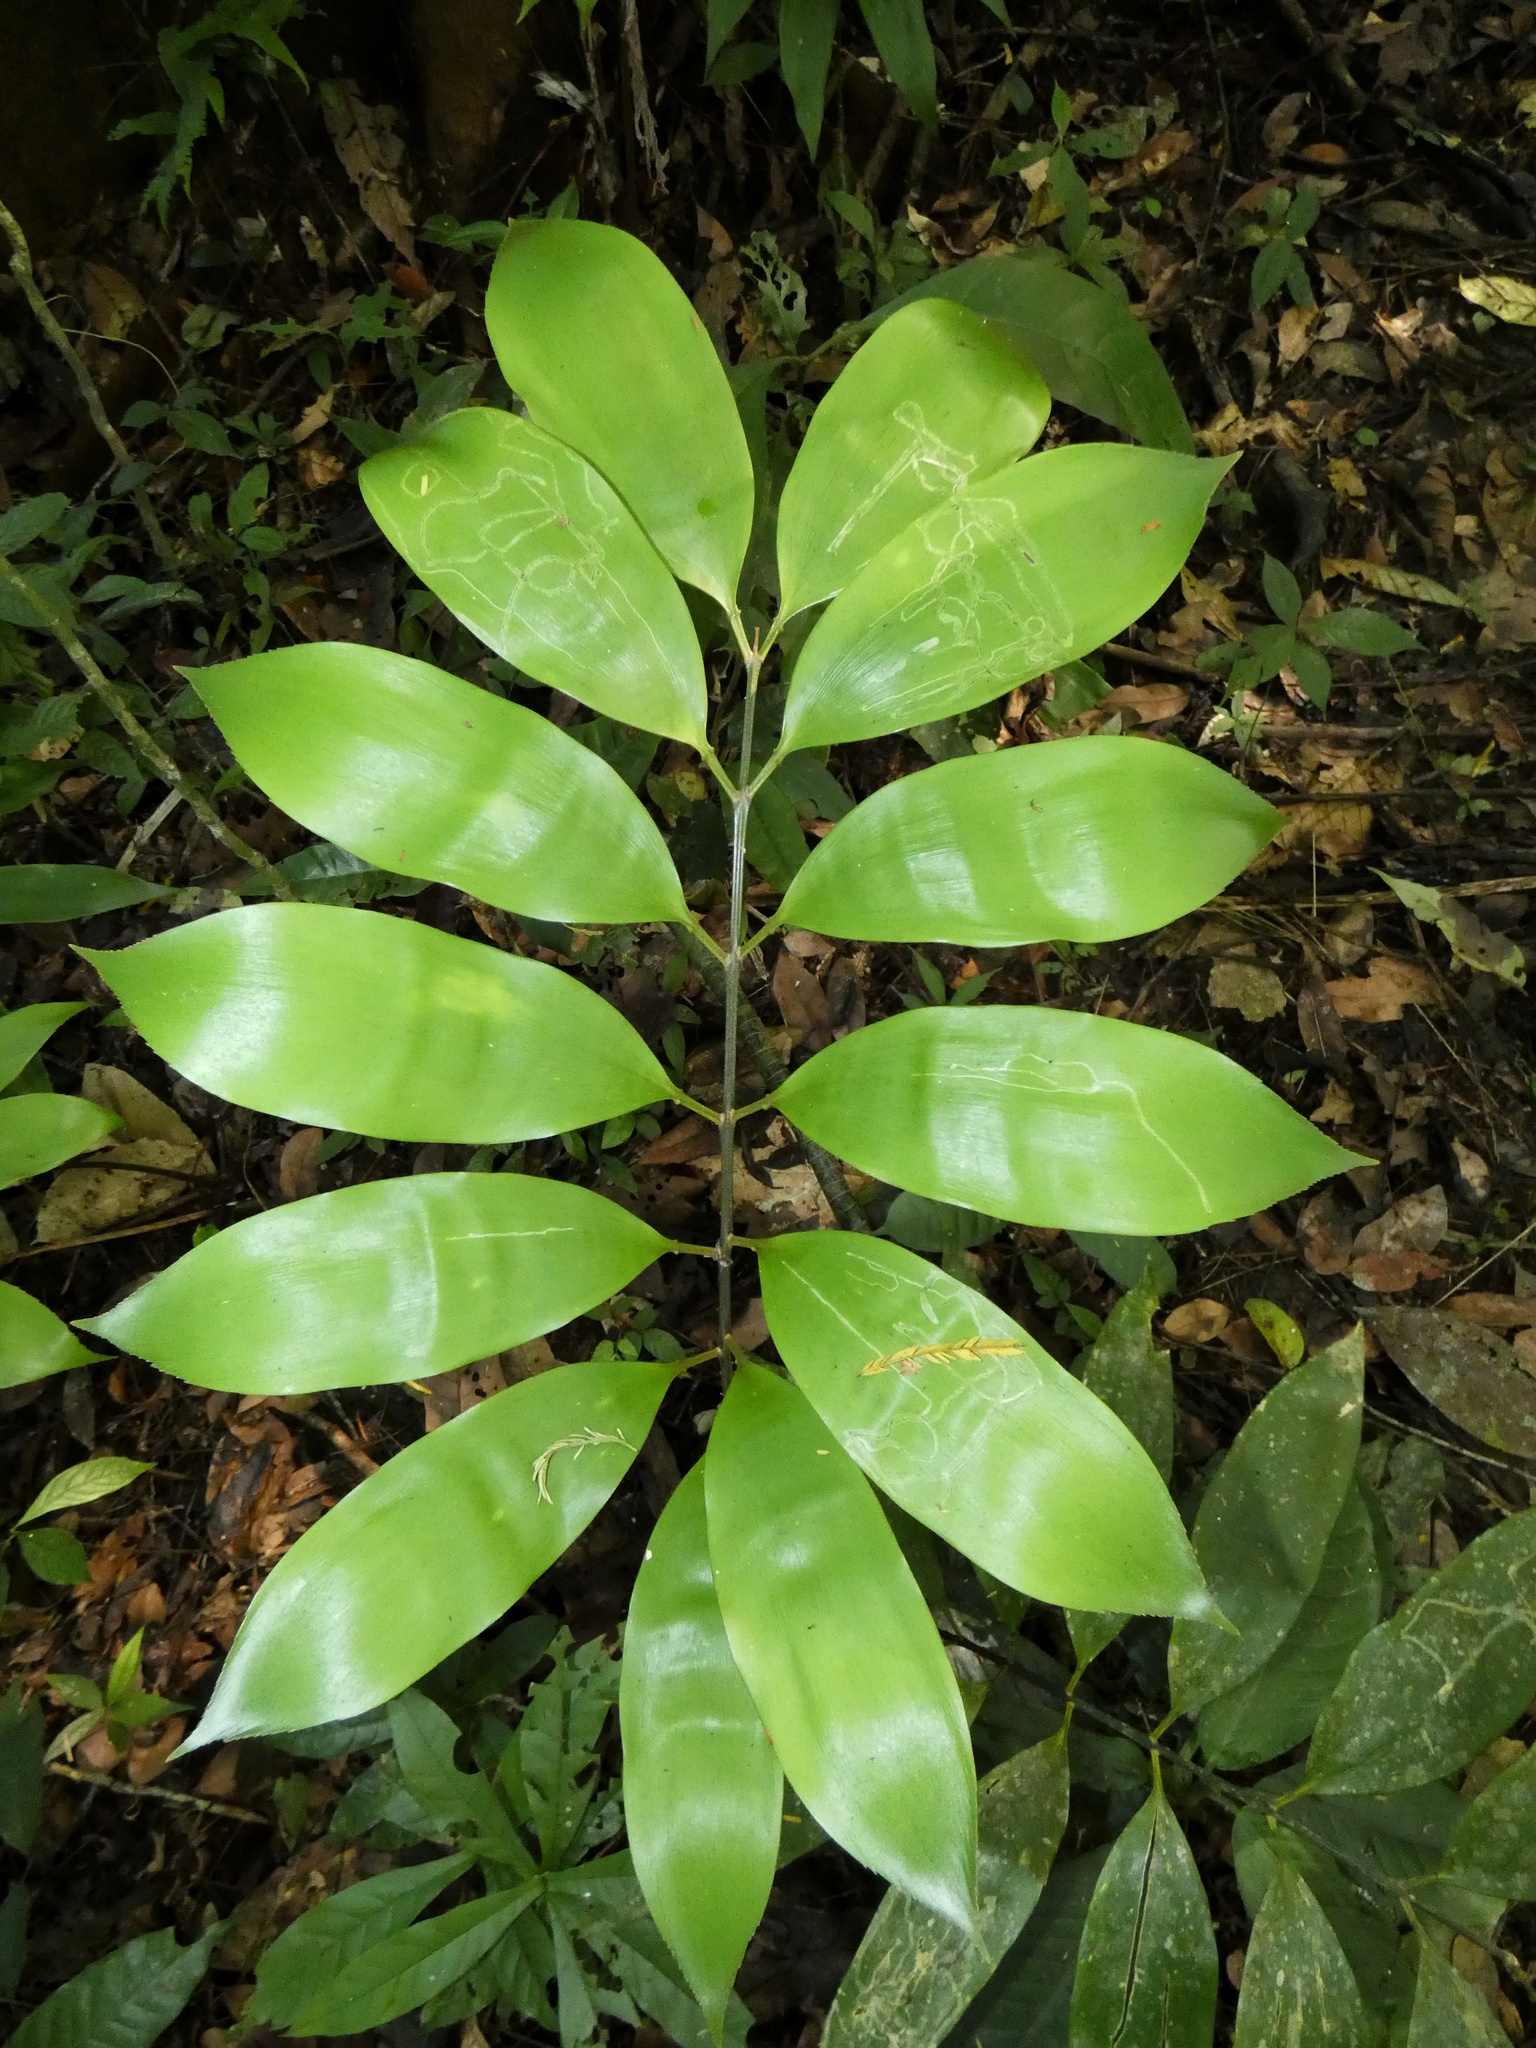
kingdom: Plantae
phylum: Tracheophyta
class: Cycadopsida
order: Cycadales
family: Zamiaceae
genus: Zamia
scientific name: Zamia manicata
